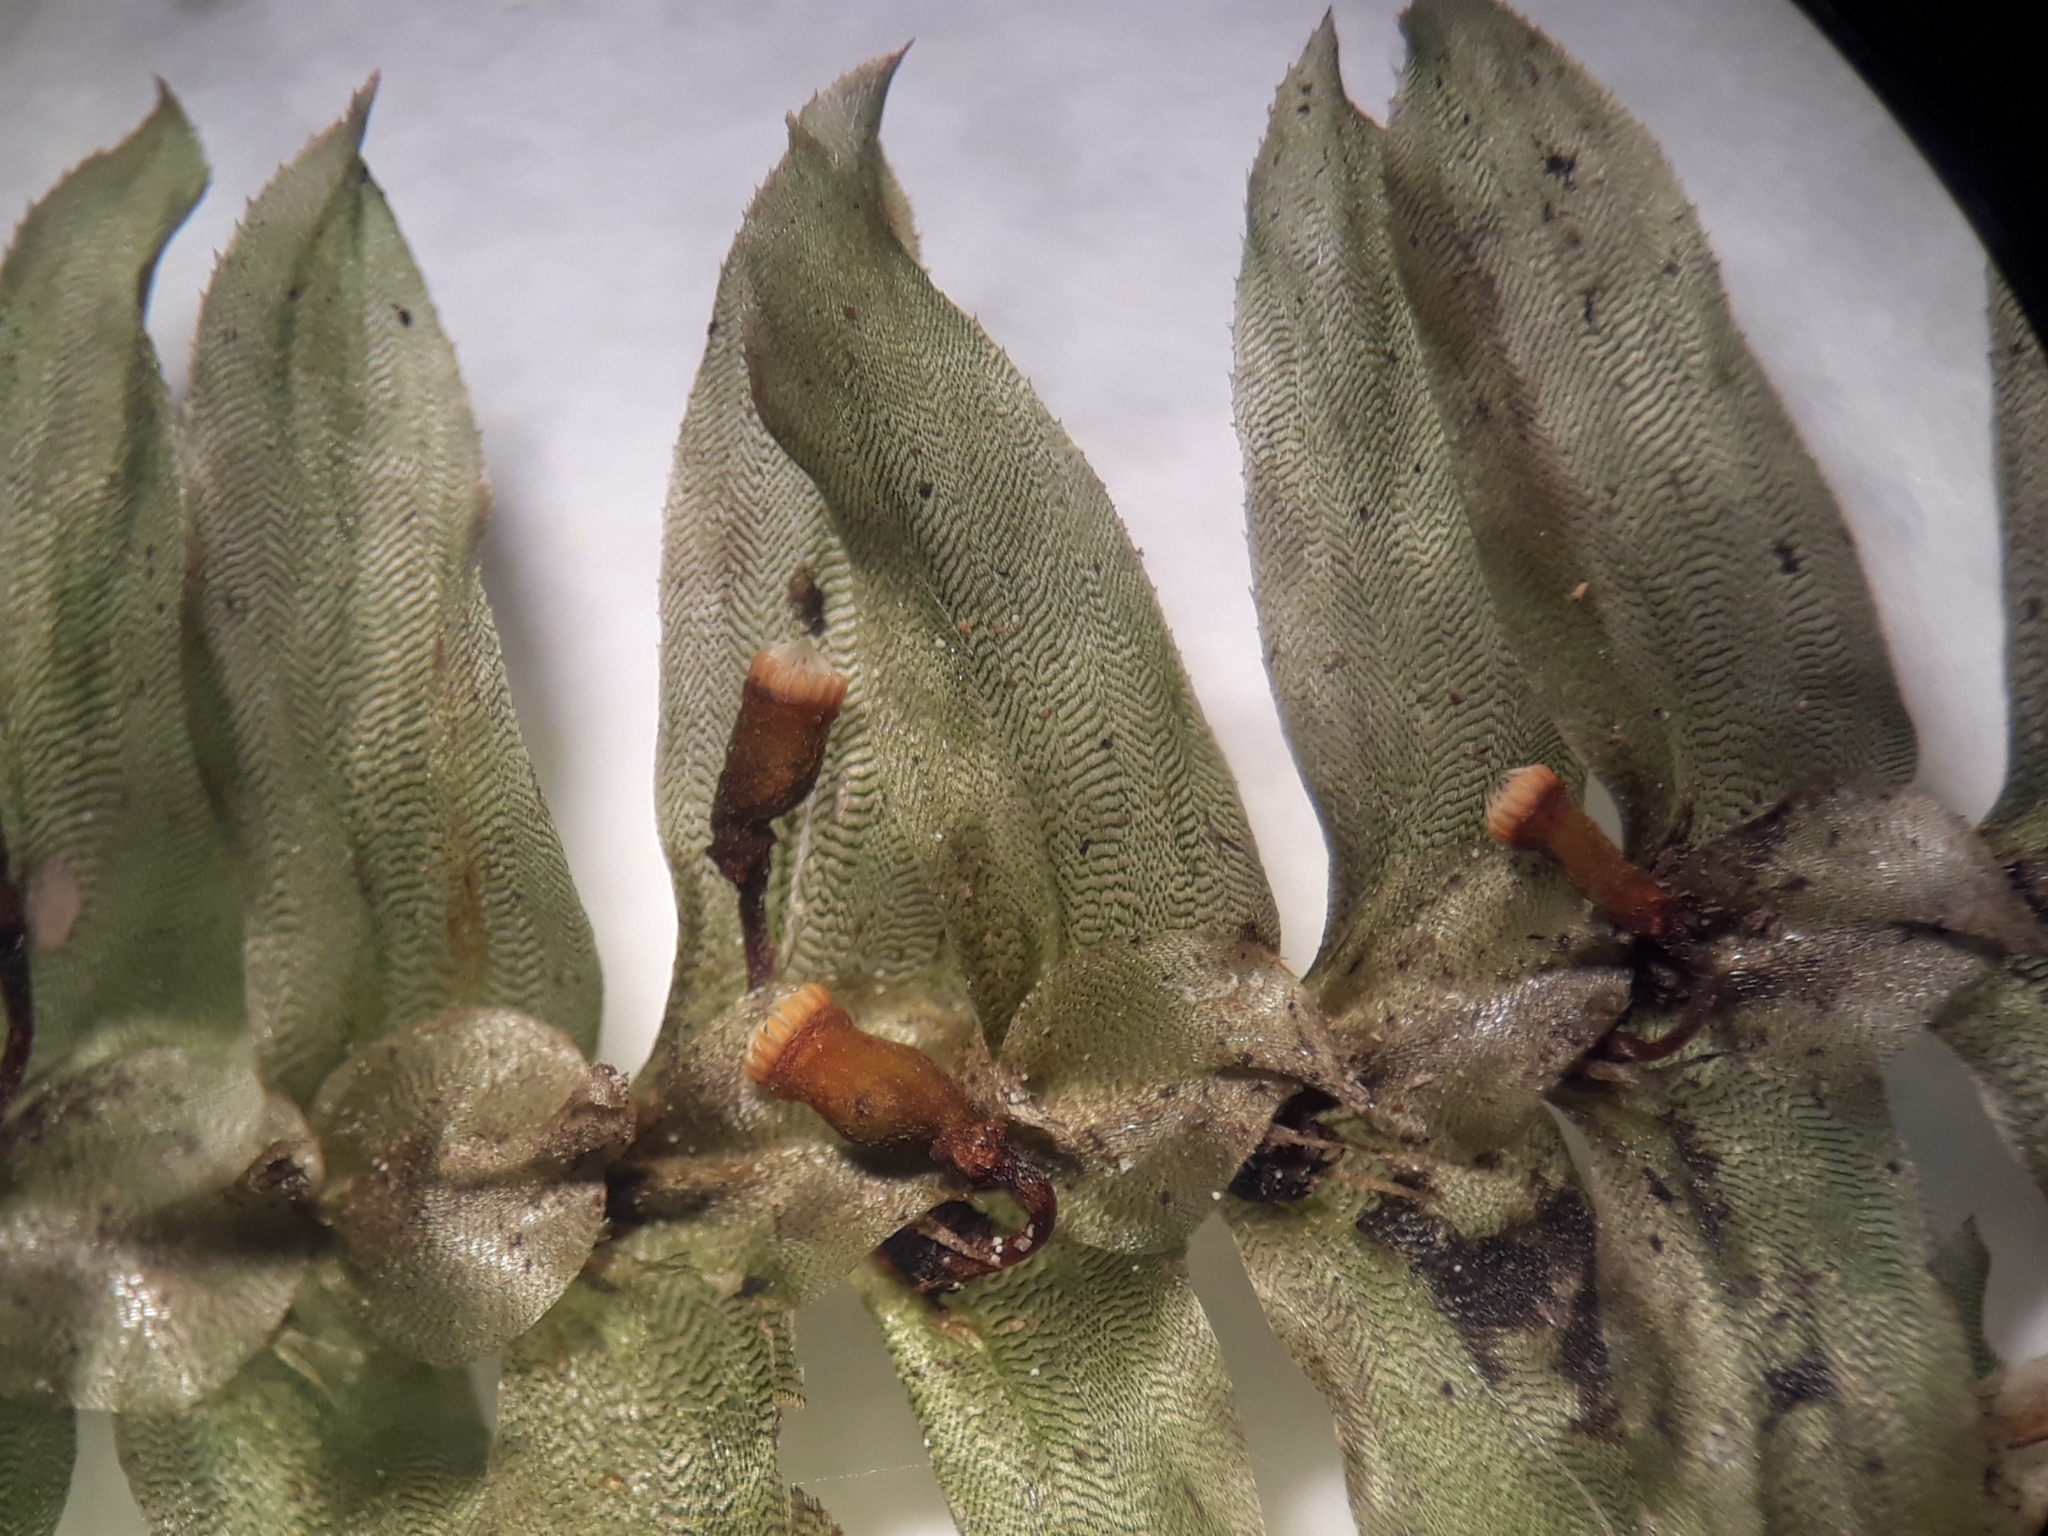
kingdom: Plantae
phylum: Bryophyta
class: Bryopsida
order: Hypopterygiales
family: Hypopterygiaceae
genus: Cyathophorum
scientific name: Cyathophorum bulbosum
